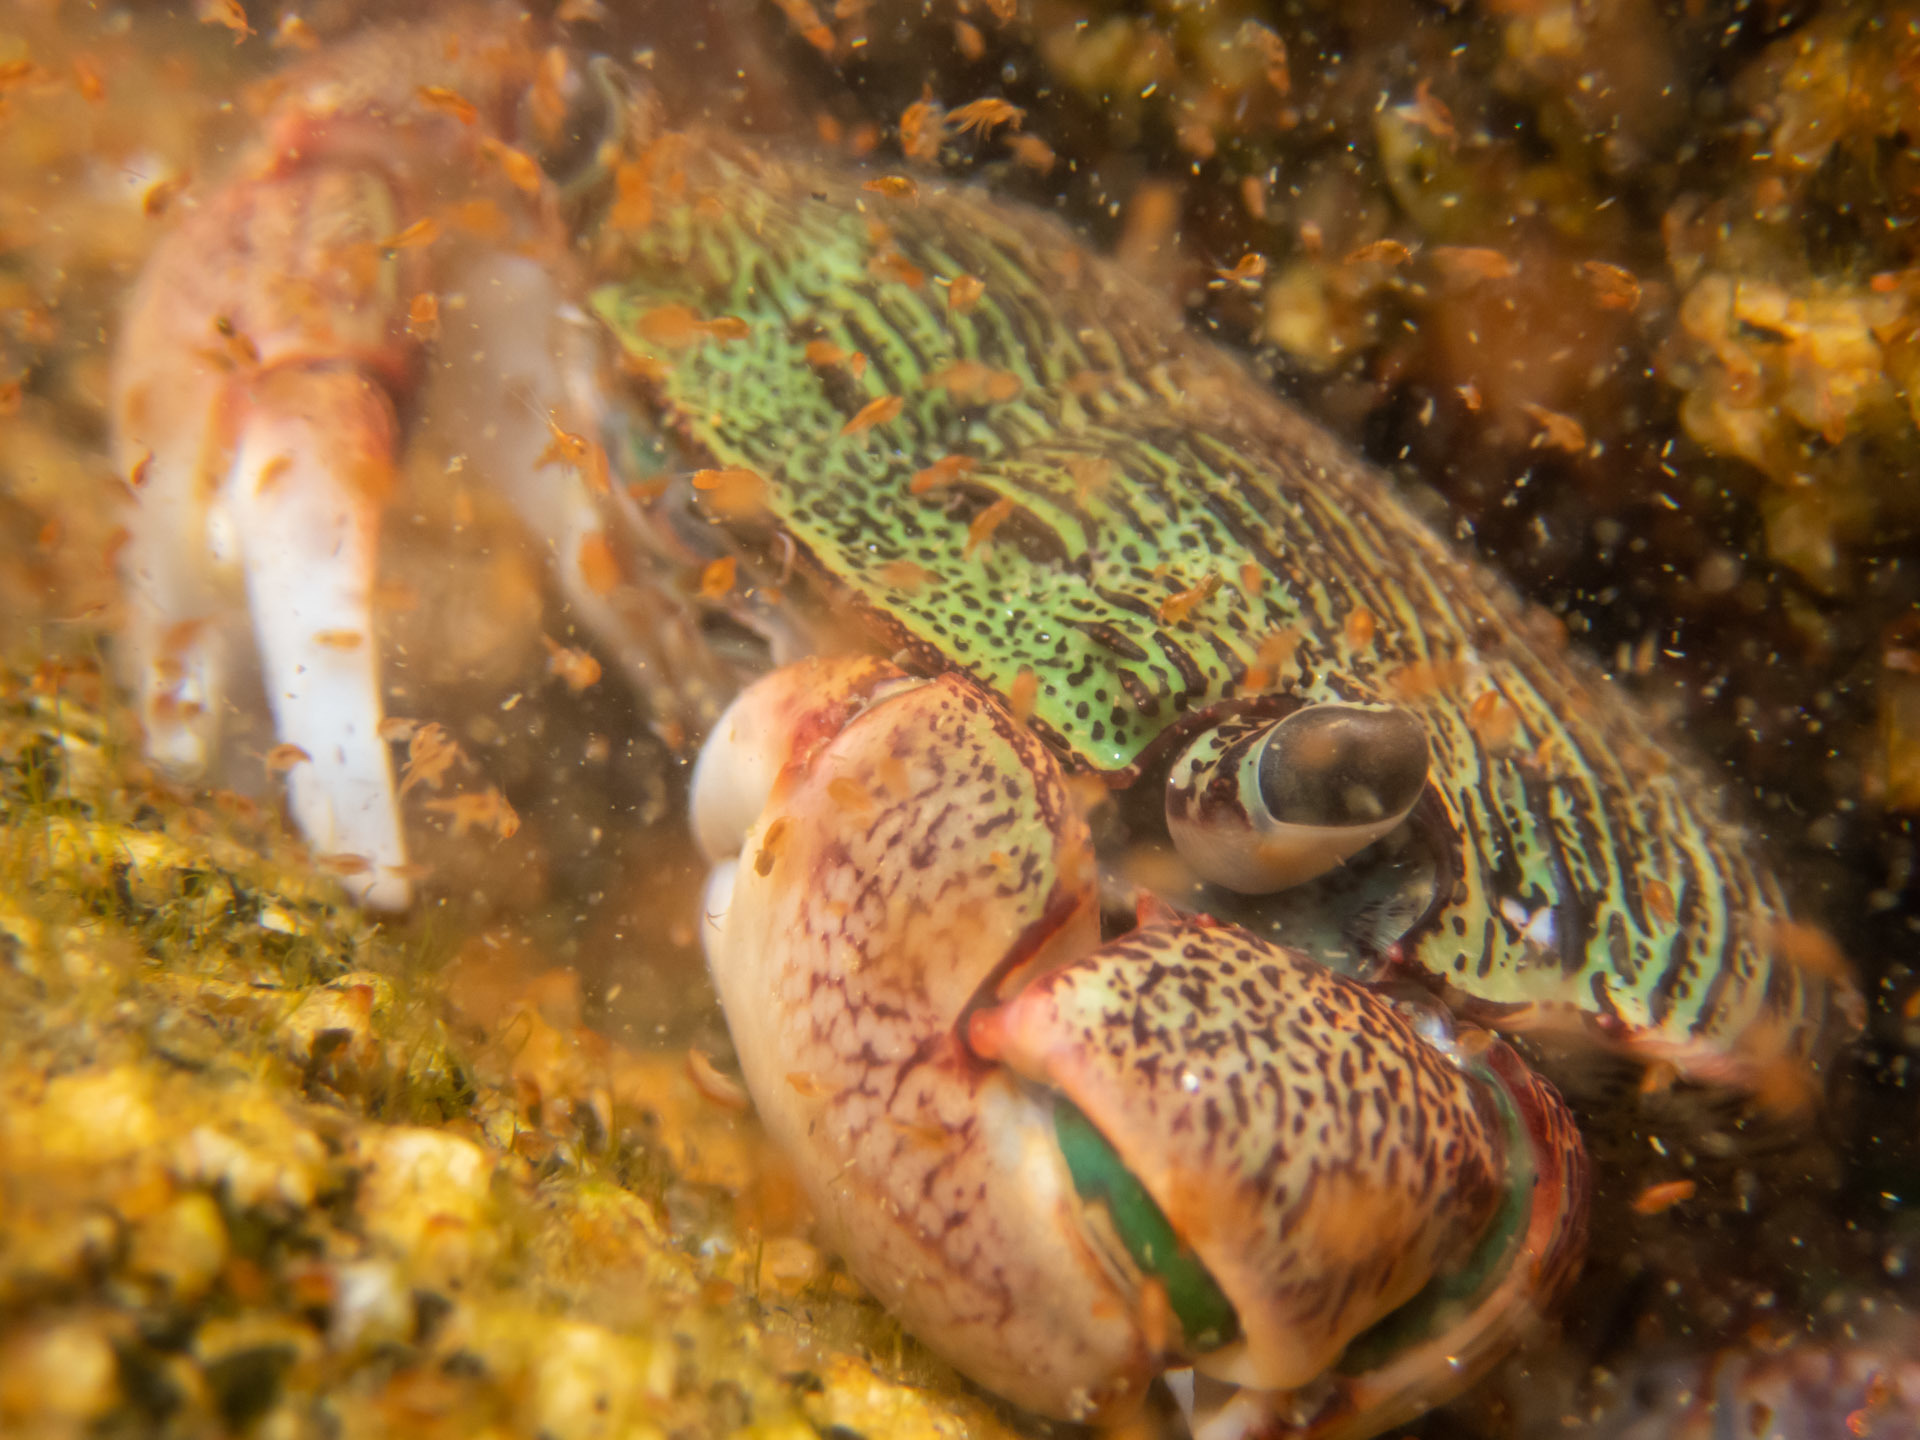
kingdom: Animalia
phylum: Arthropoda
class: Malacostraca
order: Decapoda
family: Grapsidae
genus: Pachygrapsus
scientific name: Pachygrapsus crassipes
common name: Striped shore crab
